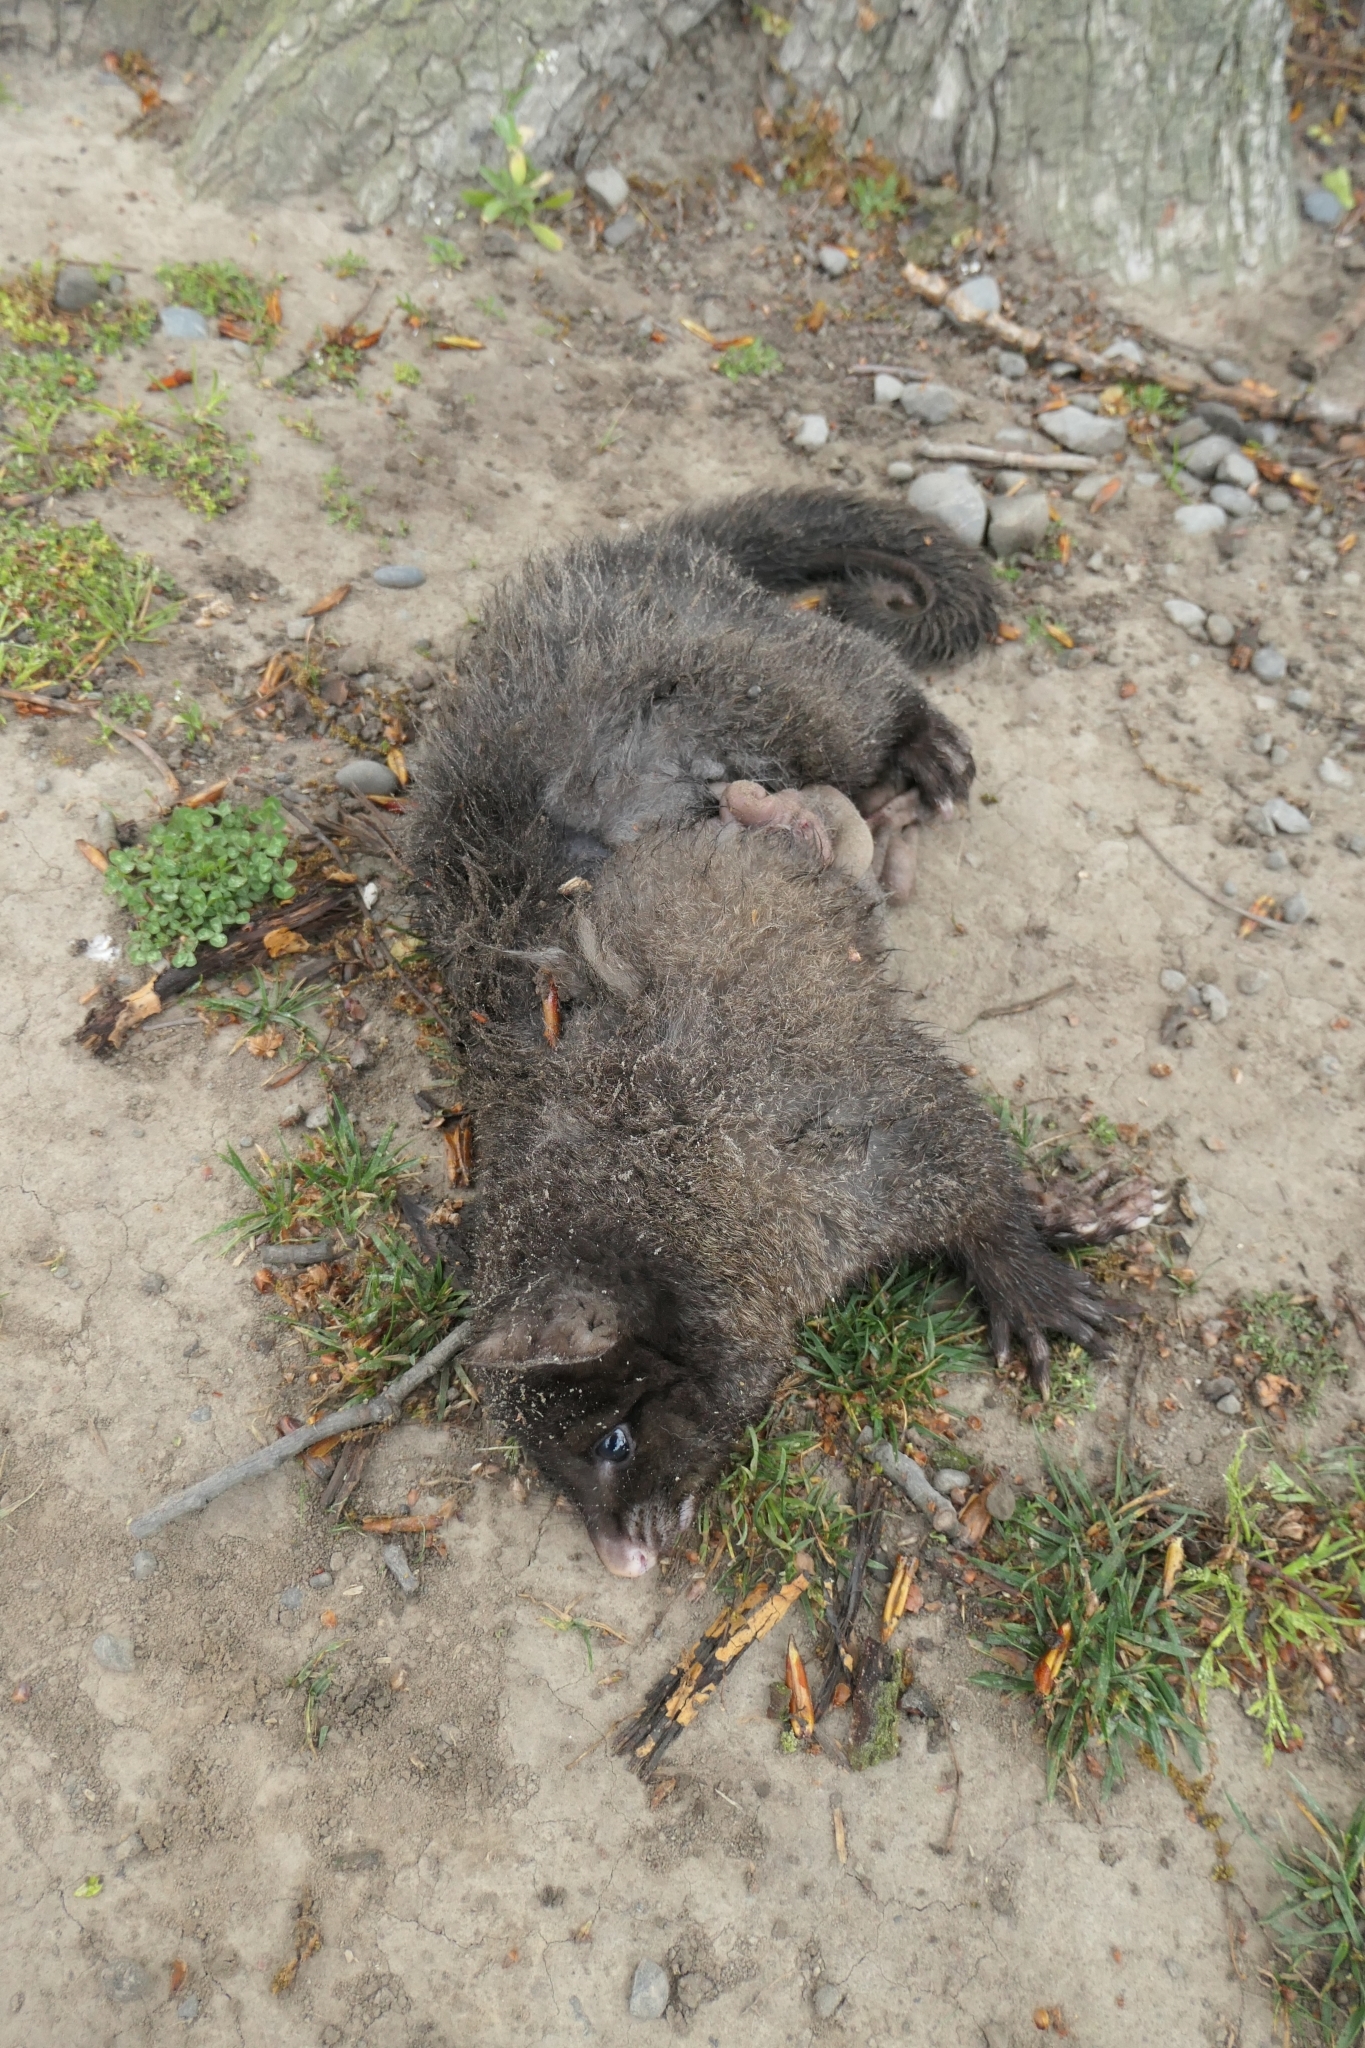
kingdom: Animalia
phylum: Chordata
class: Mammalia
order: Diprotodontia
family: Phalangeridae
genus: Trichosurus
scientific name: Trichosurus vulpecula
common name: Common brushtail
